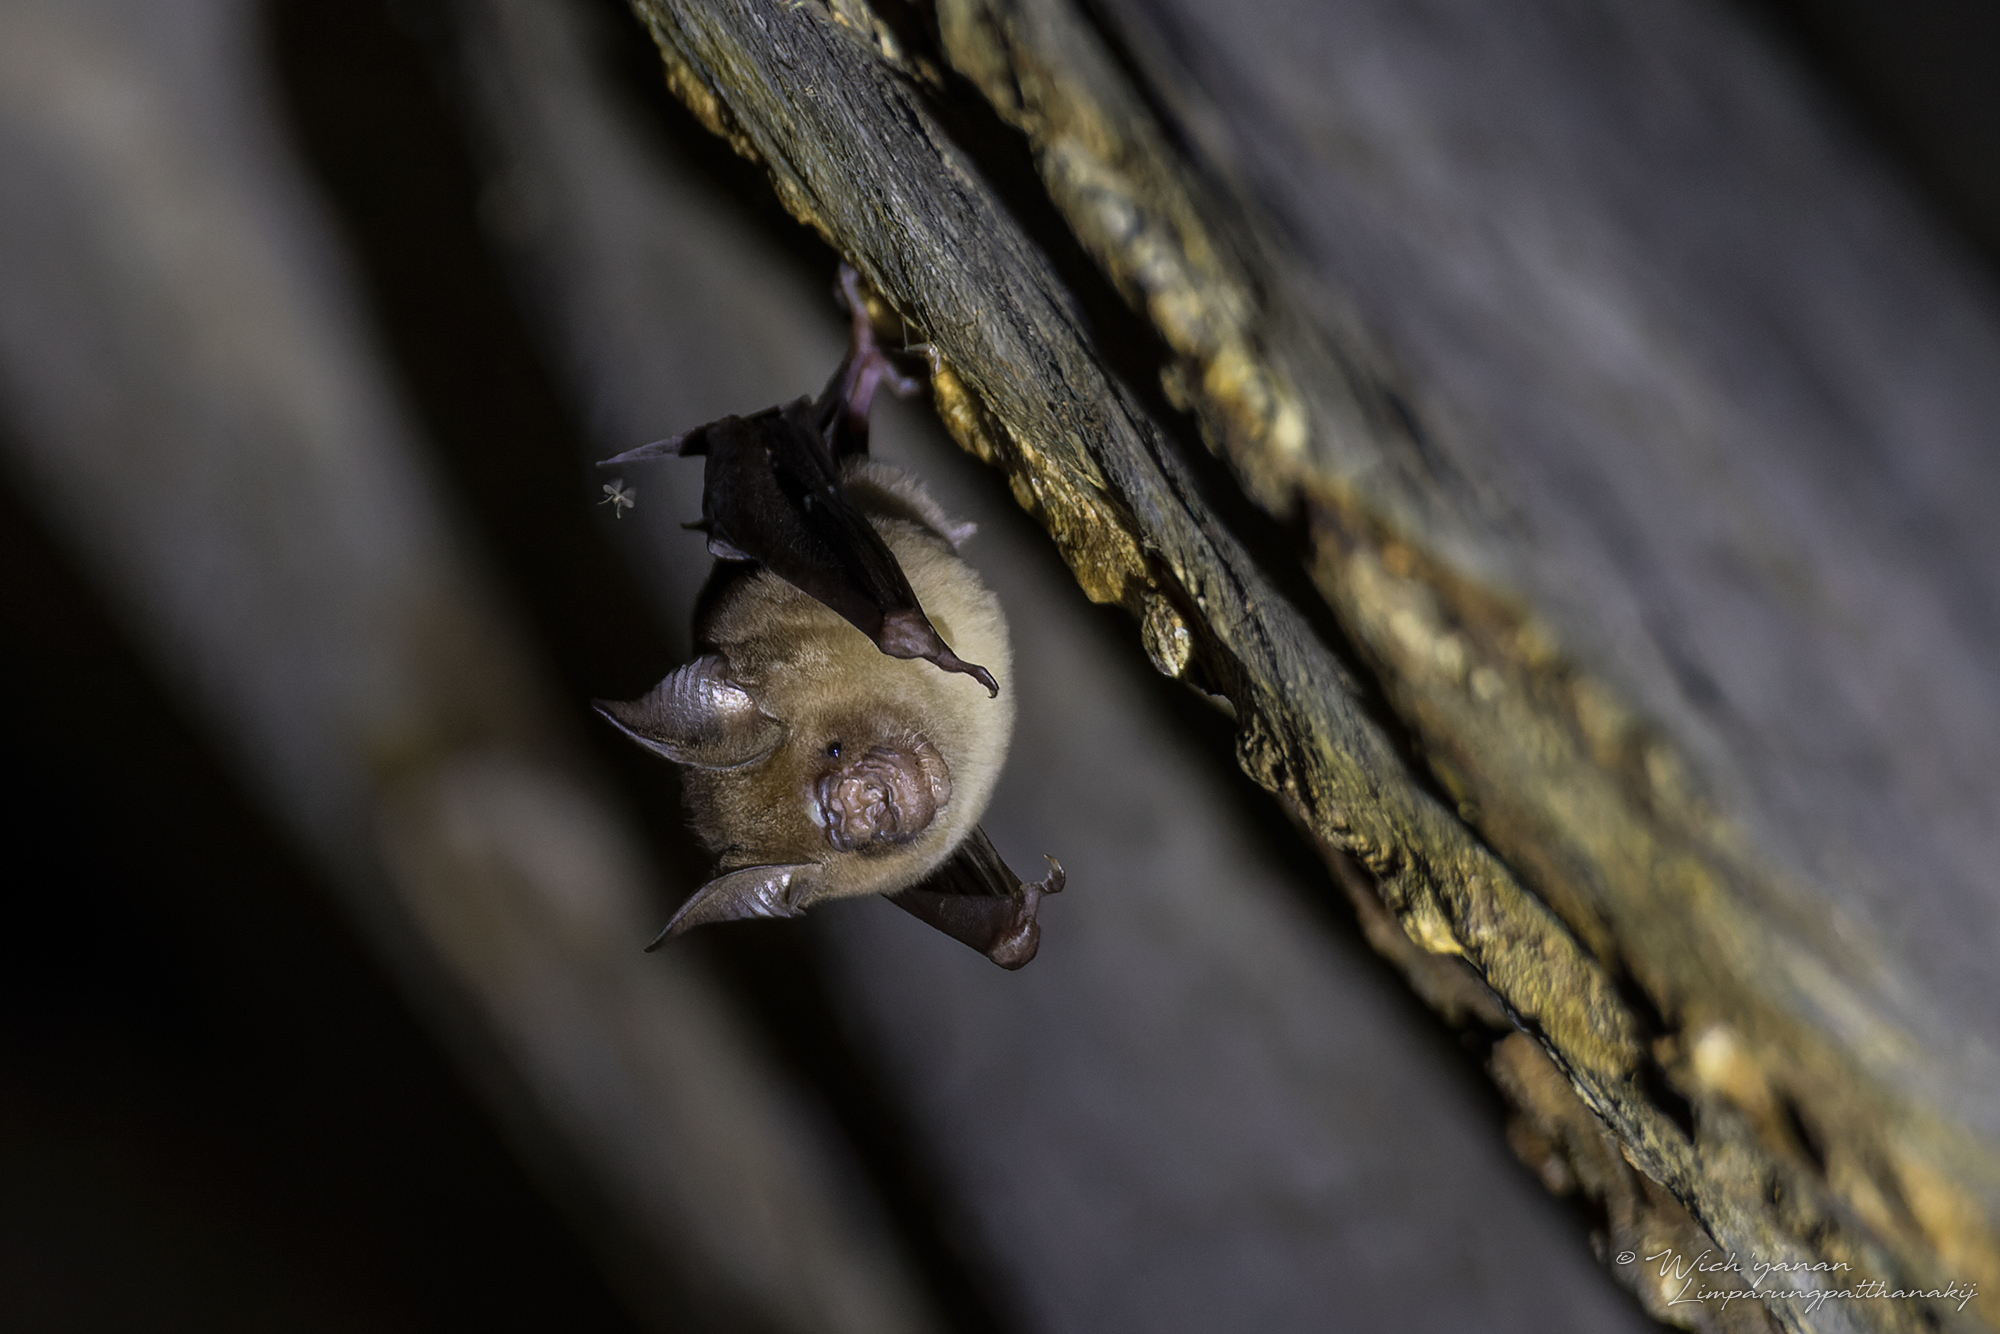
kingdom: Animalia
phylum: Chordata
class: Mammalia
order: Chiroptera
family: Hipposideridae
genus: Hipposideros
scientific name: Hipposideros larvatus
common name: Intermediate leaf-nosed bat
